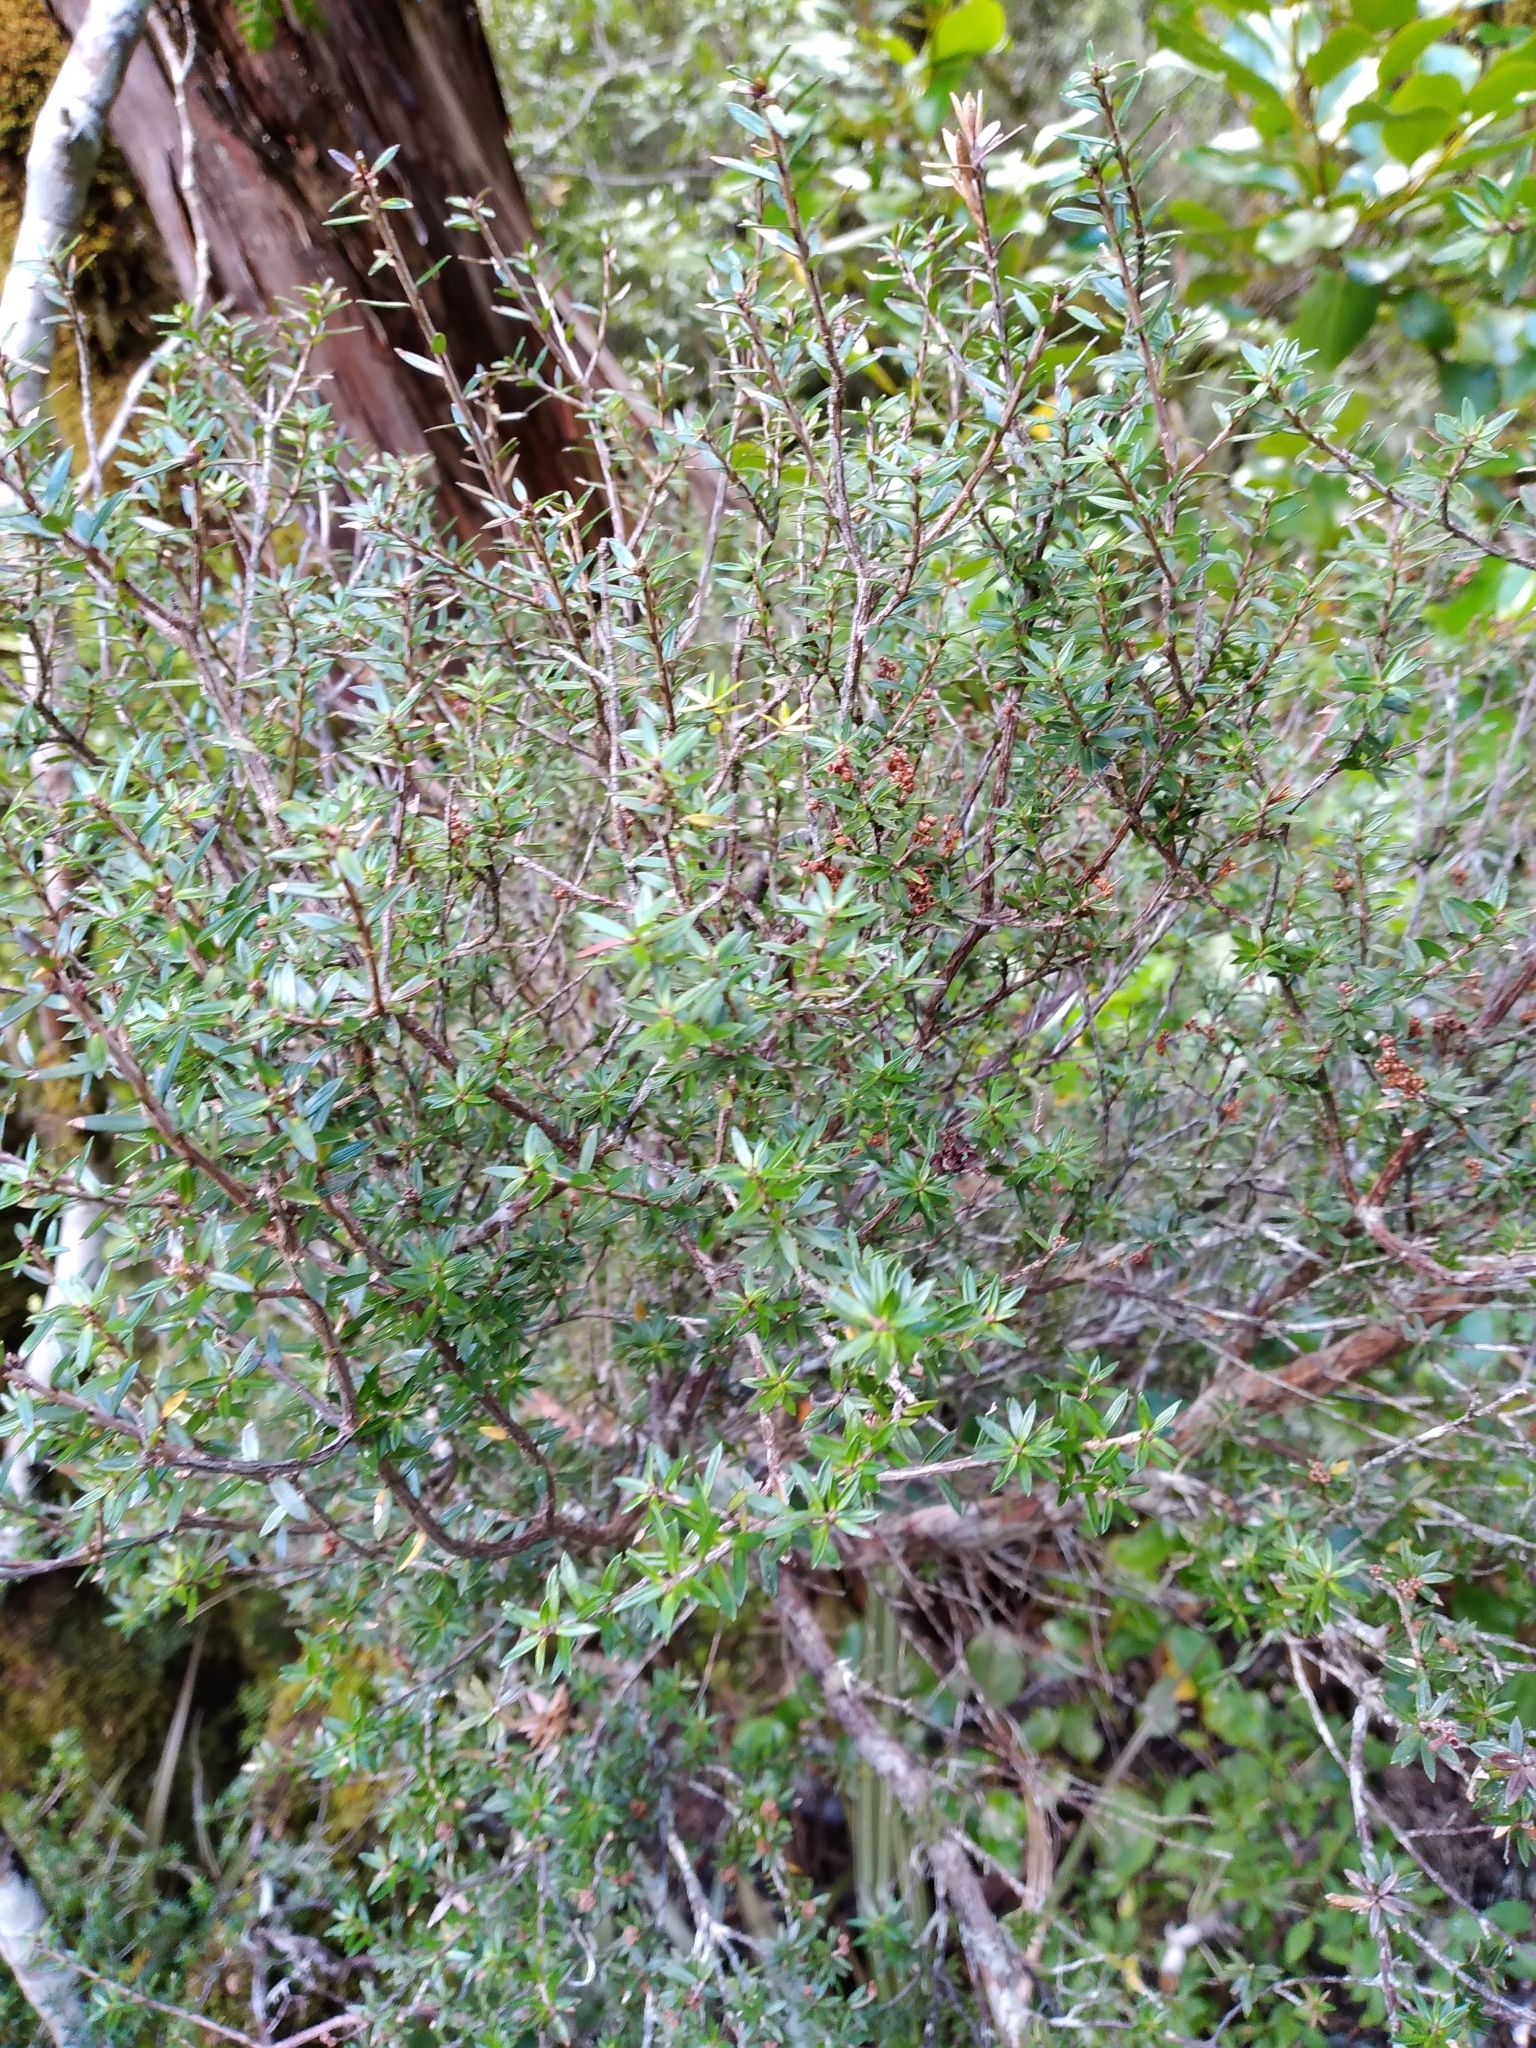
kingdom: Plantae
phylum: Tracheophyta
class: Magnoliopsida
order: Ericales
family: Ericaceae
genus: Archeria
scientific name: Archeria traversii
